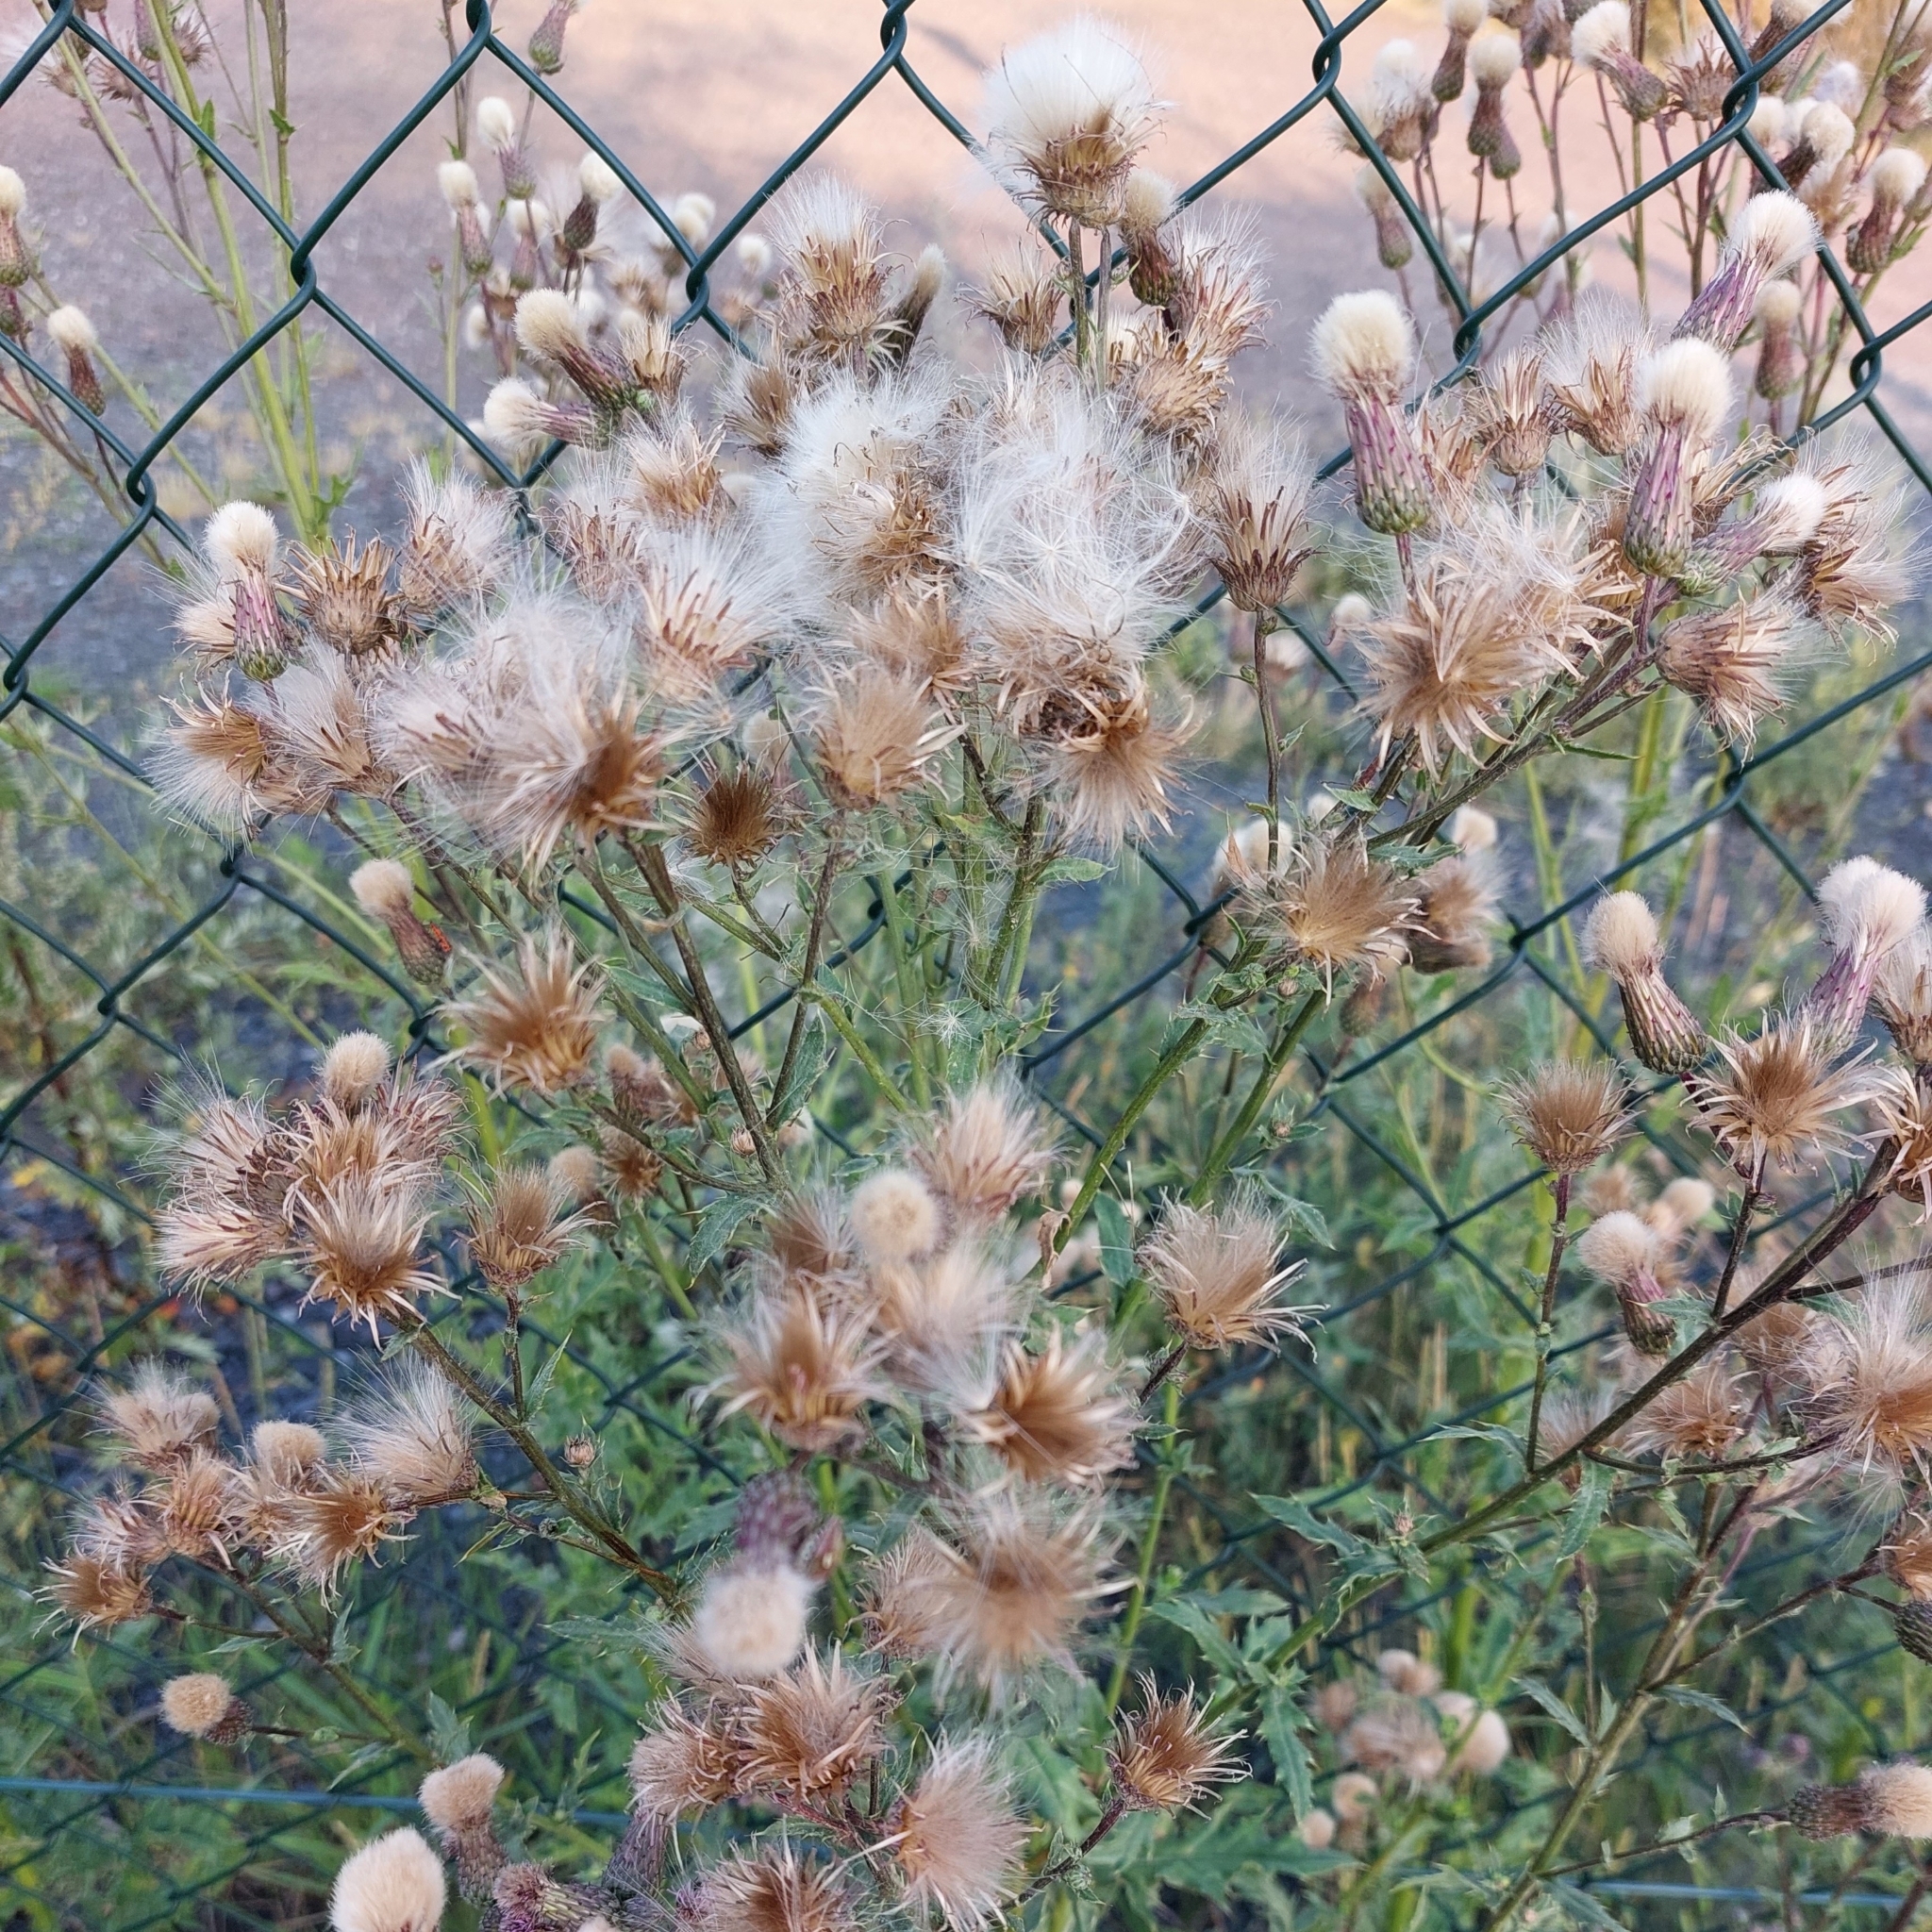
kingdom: Plantae
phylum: Tracheophyta
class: Magnoliopsida
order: Asterales
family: Asteraceae
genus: Cirsium
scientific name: Cirsium arvense
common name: Creeping thistle
